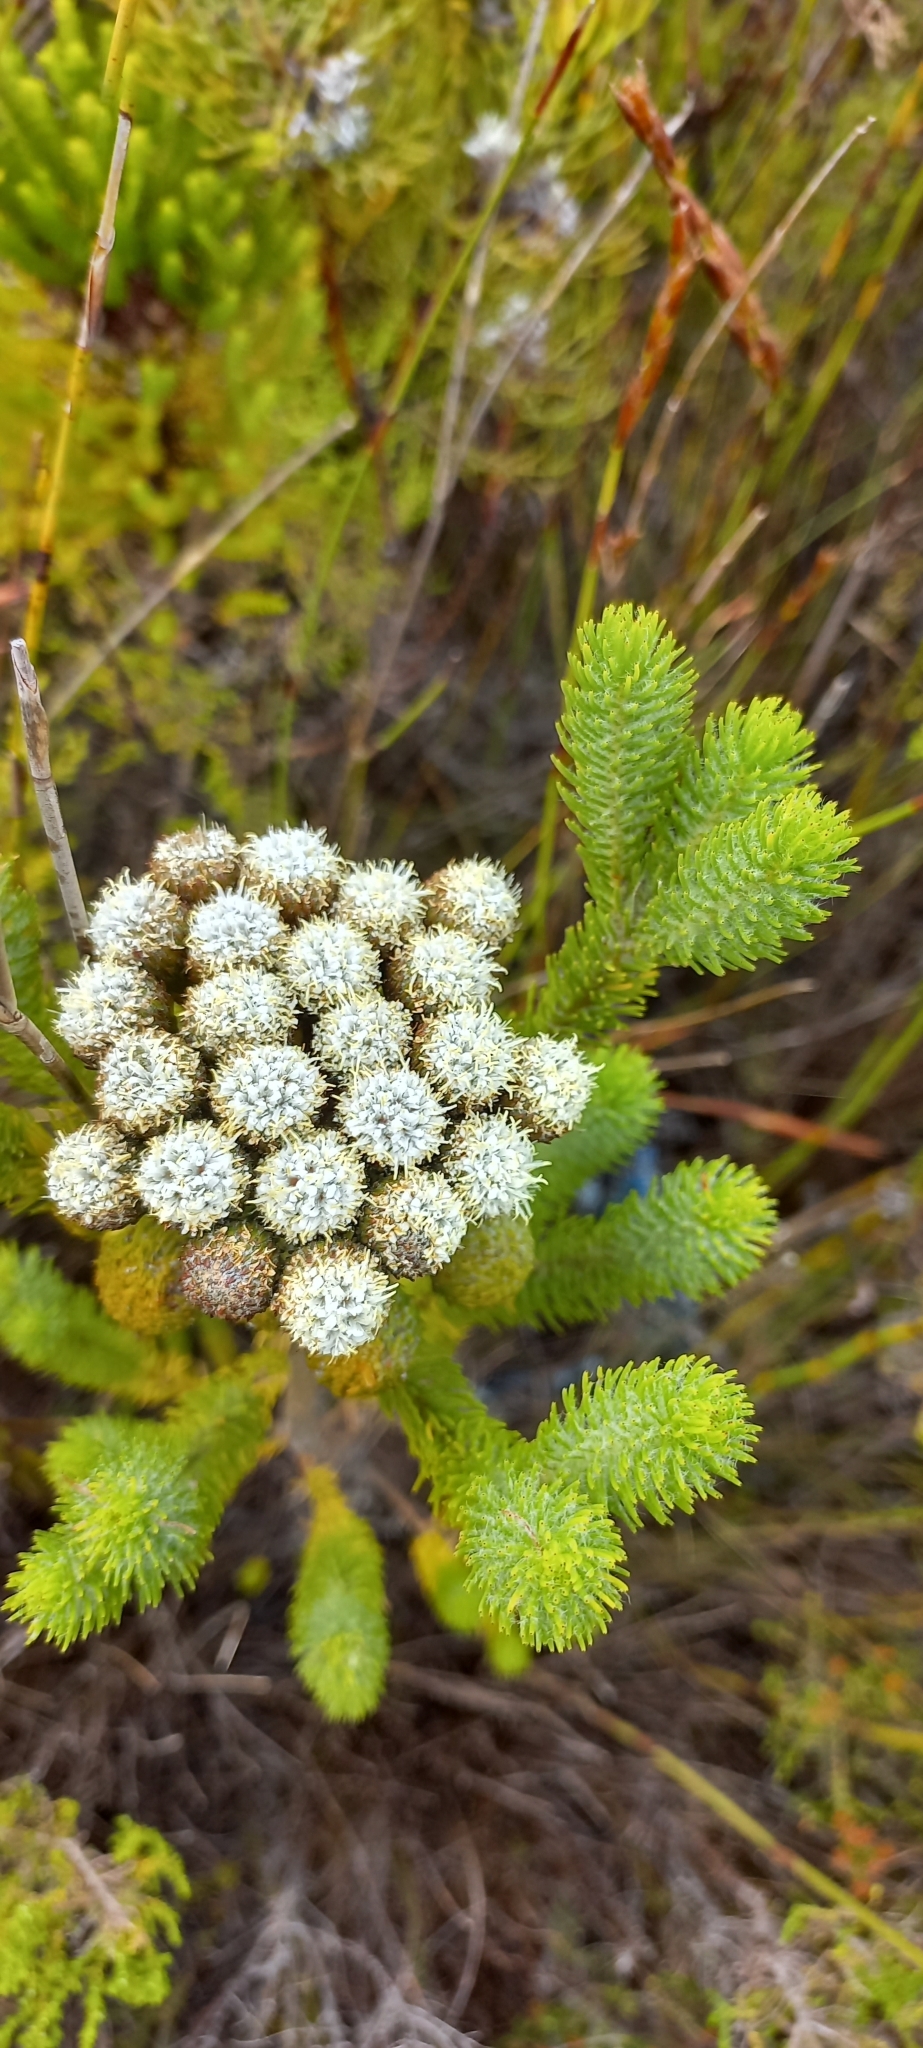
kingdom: Plantae
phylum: Tracheophyta
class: Magnoliopsida
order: Bruniales
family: Bruniaceae
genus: Berzelia
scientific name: Berzelia albiflora
